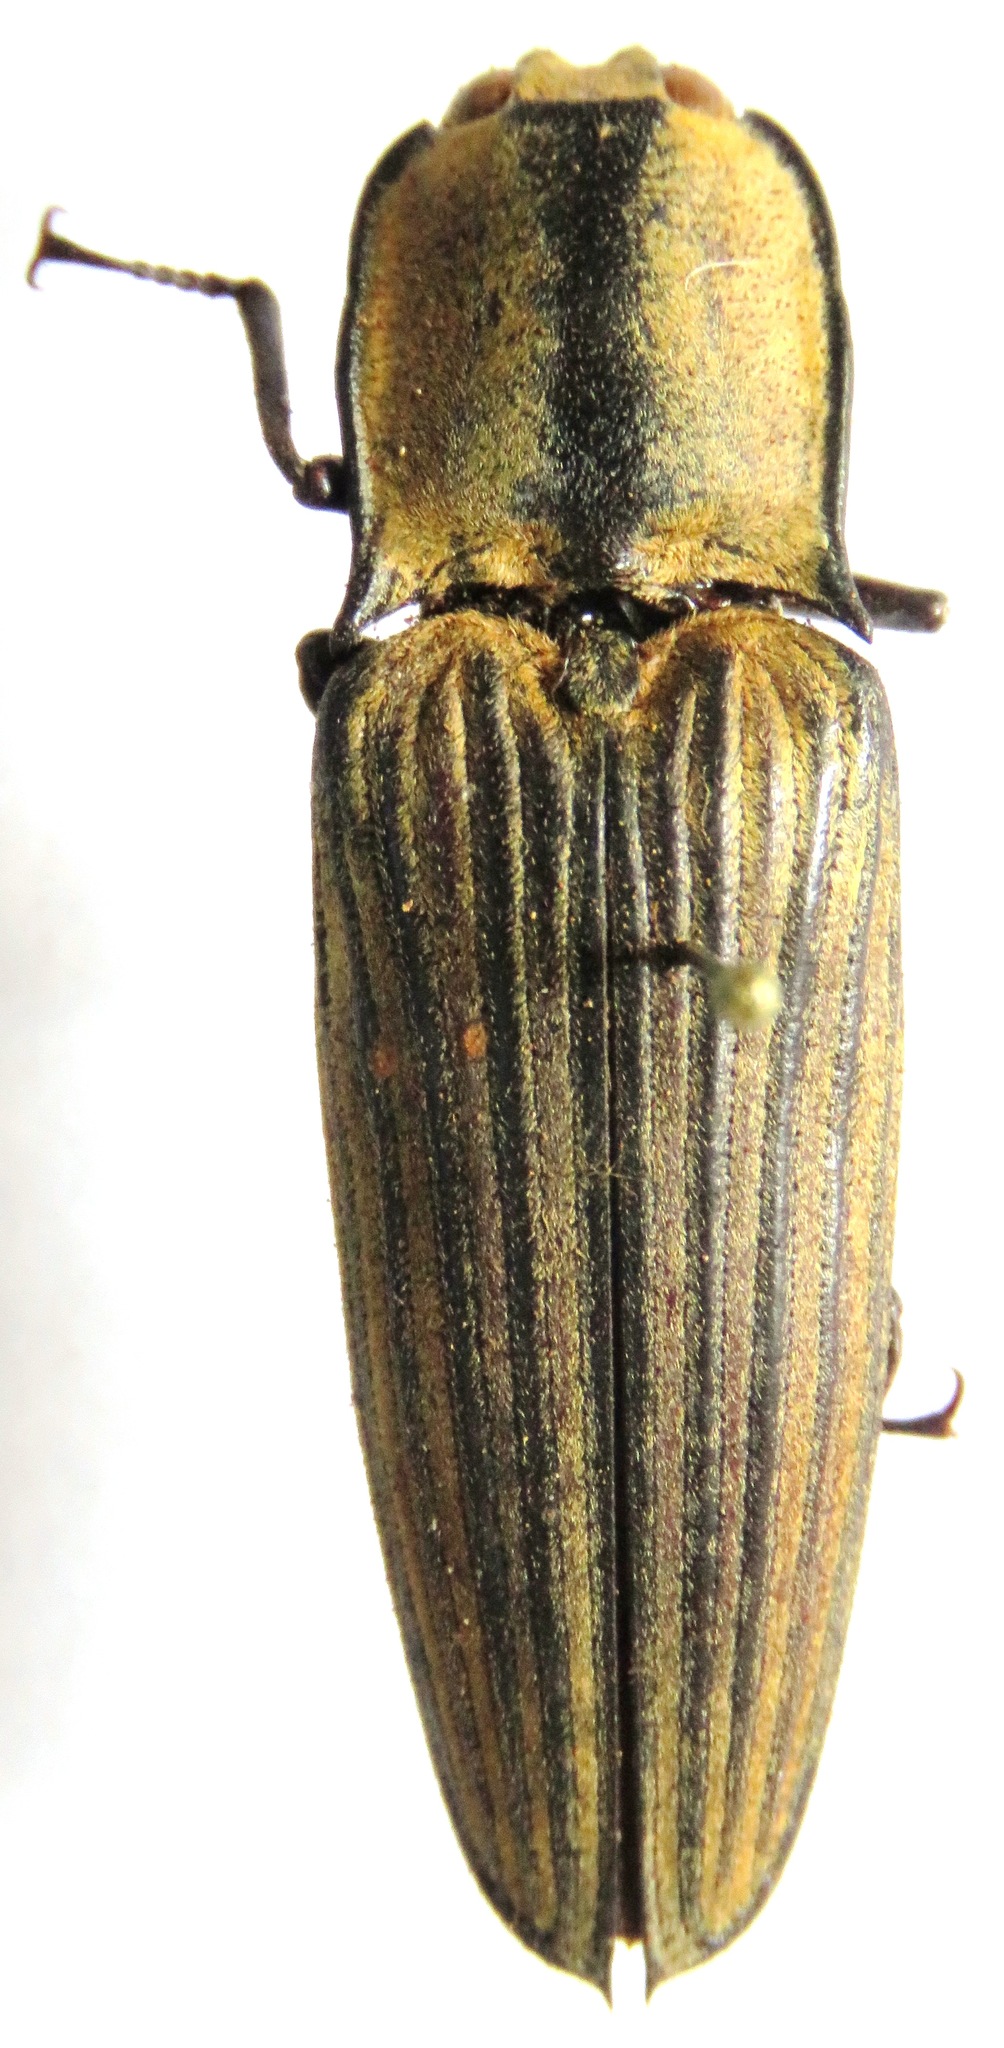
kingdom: Animalia
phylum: Arthropoda
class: Insecta
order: Coleoptera
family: Elateridae
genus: Alaus
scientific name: Alaus
